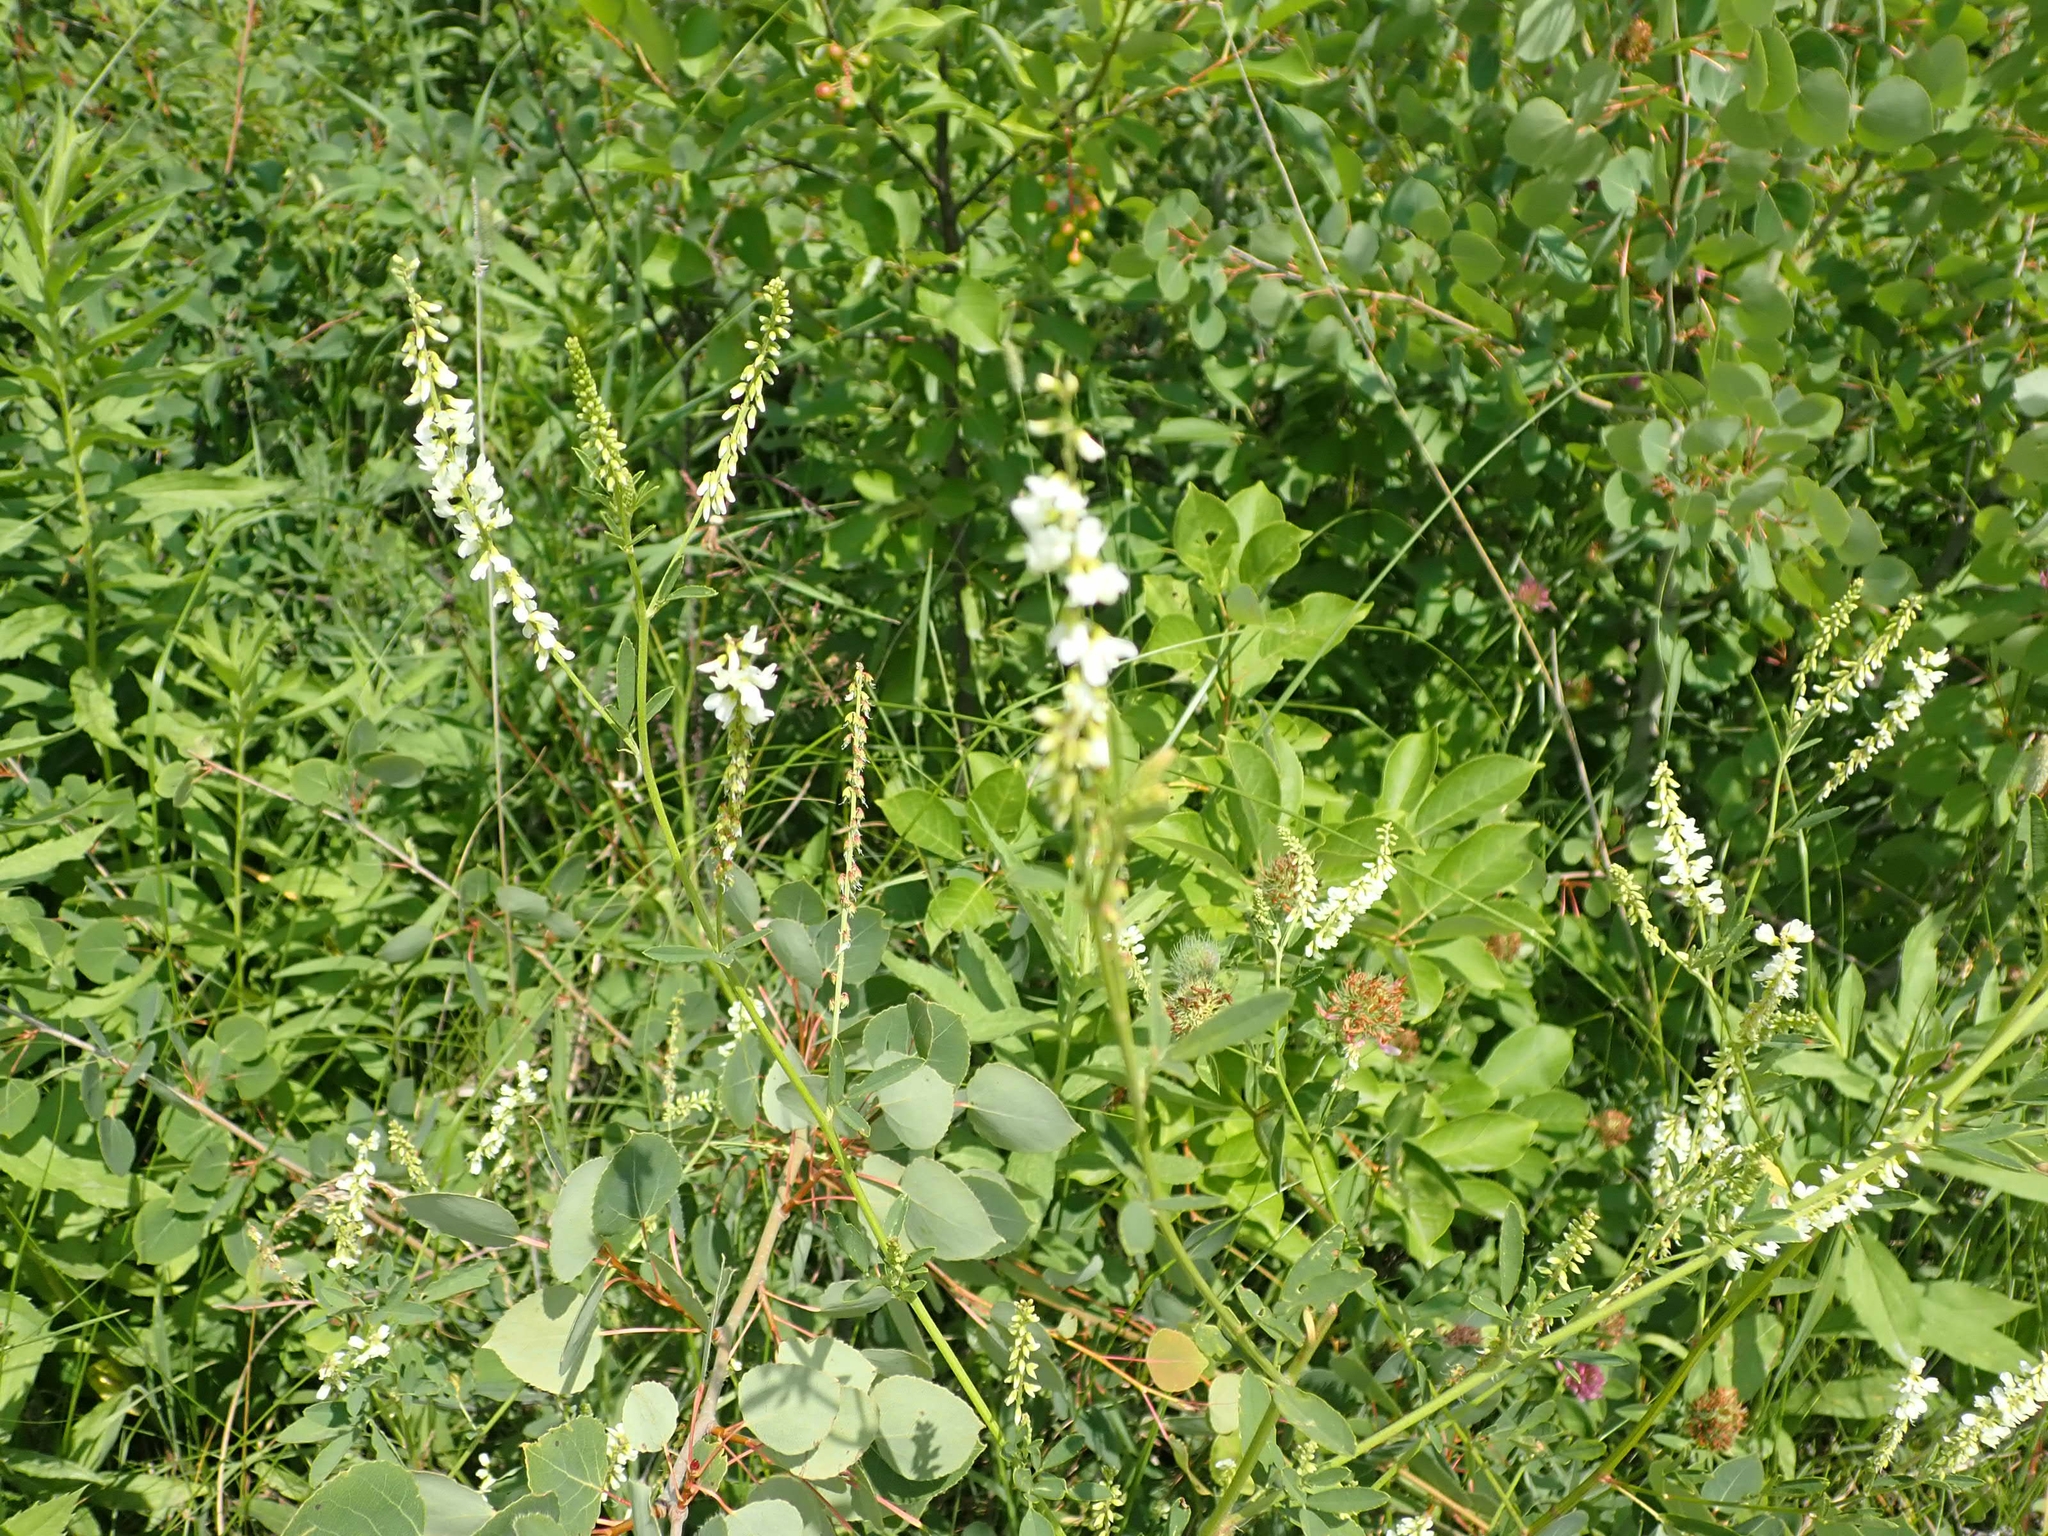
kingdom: Plantae
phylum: Tracheophyta
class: Magnoliopsida
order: Fabales
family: Fabaceae
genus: Melilotus
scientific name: Melilotus albus
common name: White melilot
